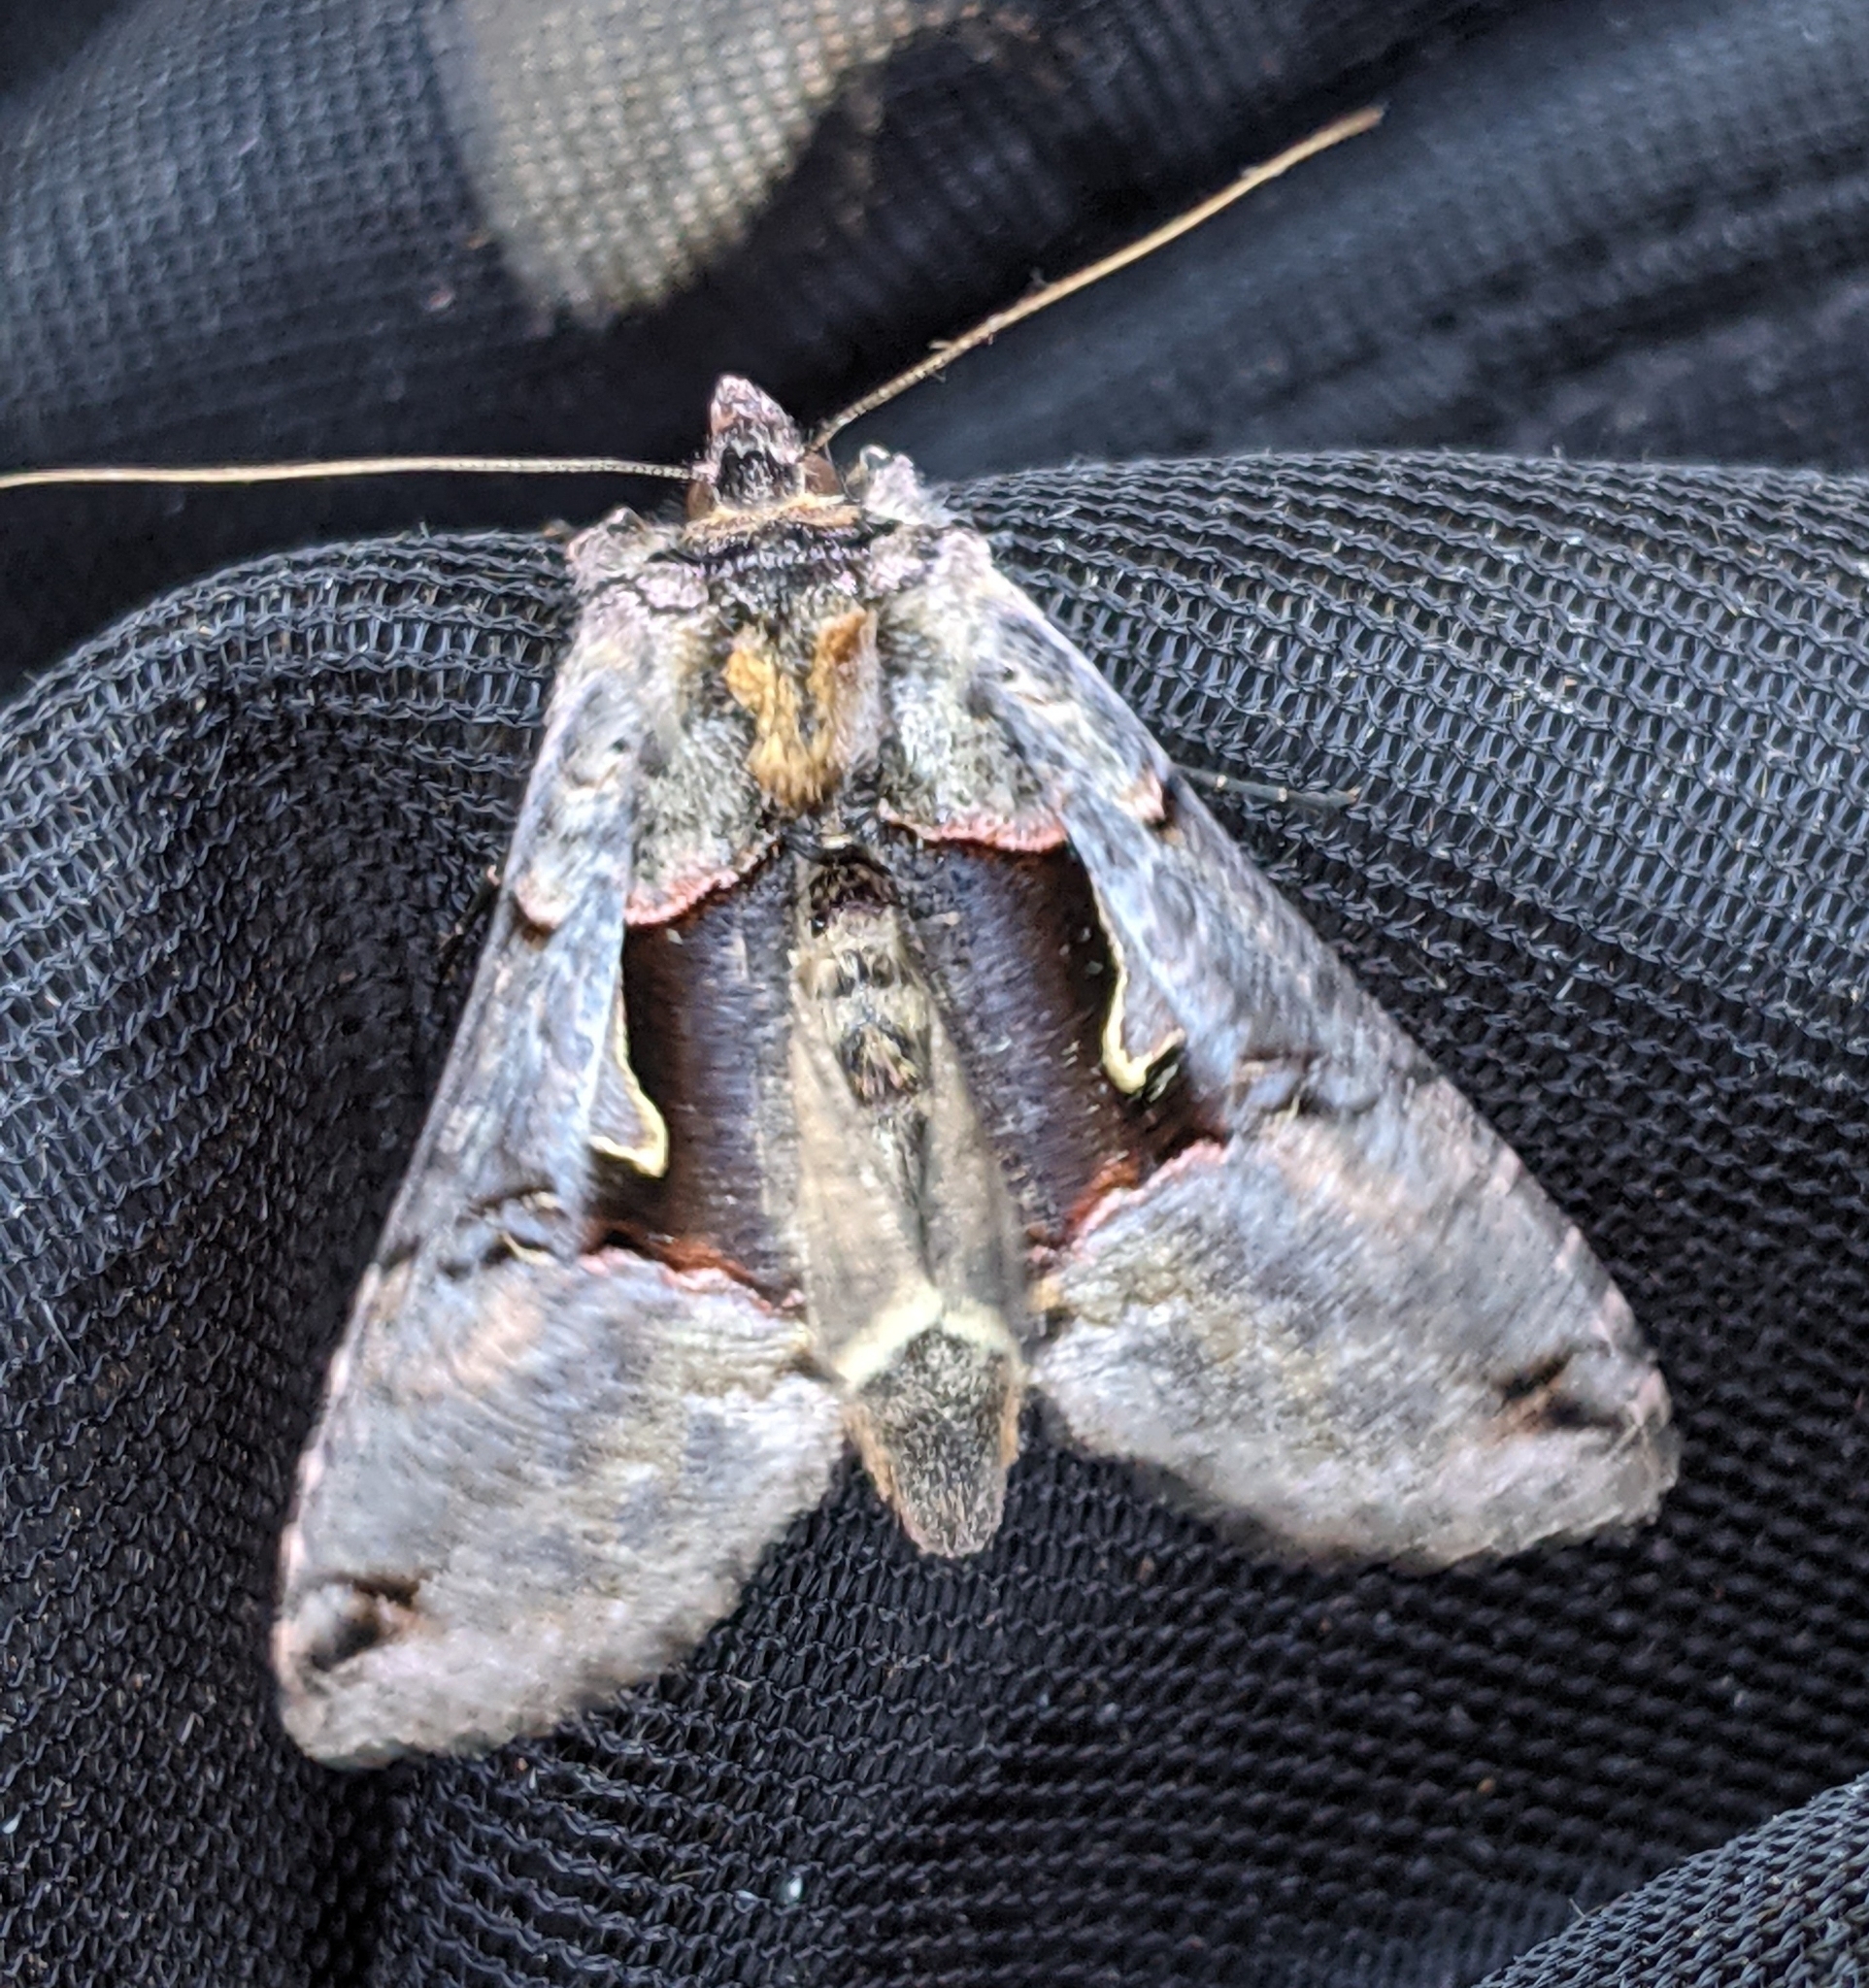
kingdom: Animalia
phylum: Arthropoda
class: Insecta
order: Lepidoptera
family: Noctuidae
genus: Autographa
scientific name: Autographa ampla
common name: Large looper moth
